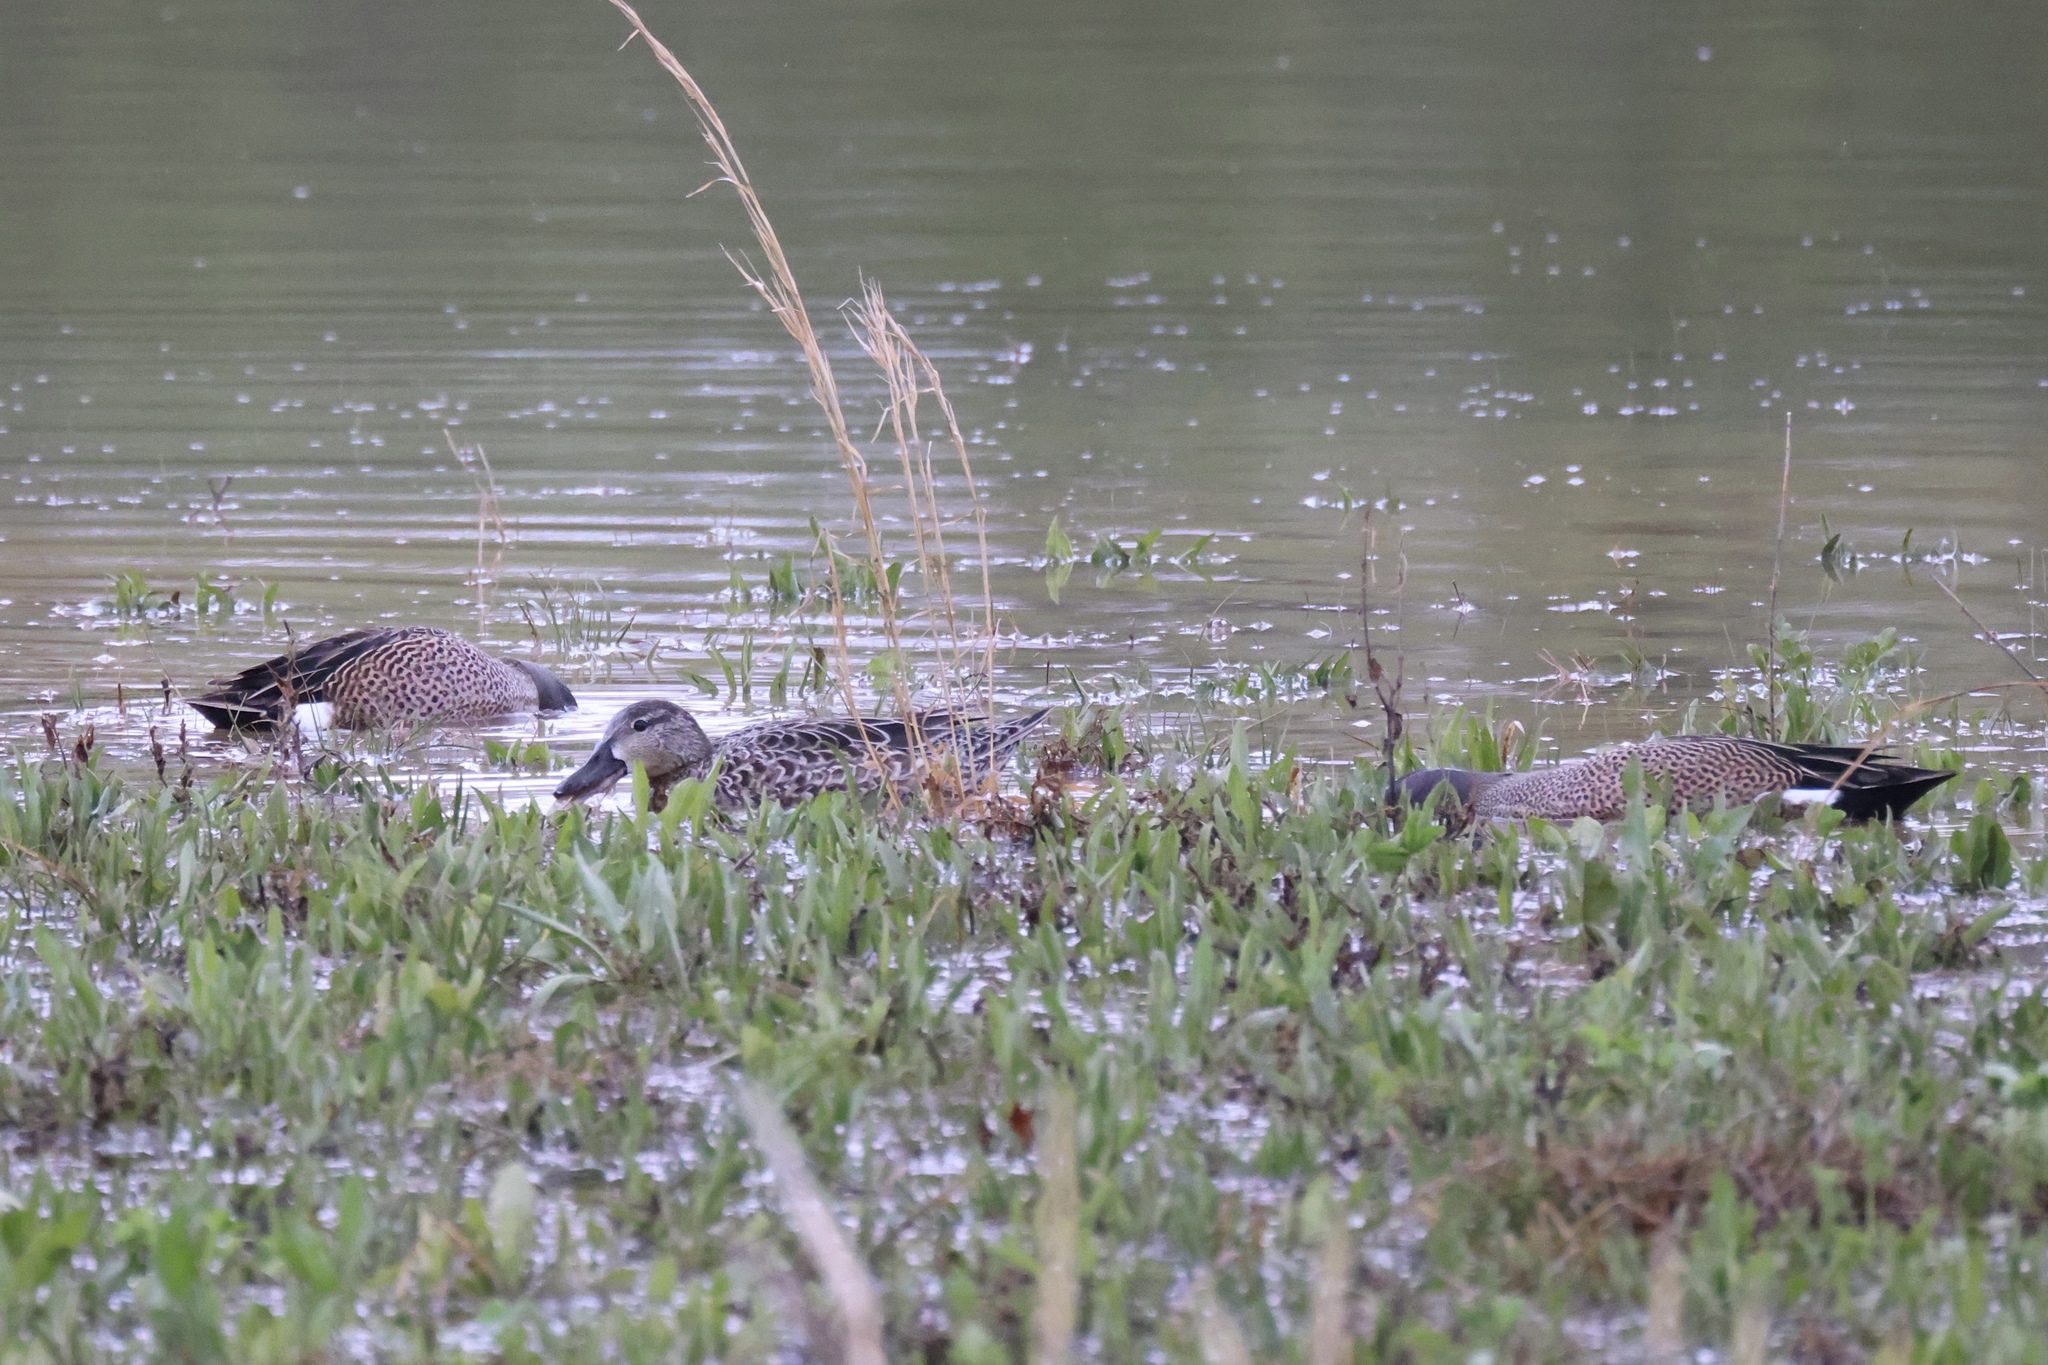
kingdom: Animalia
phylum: Chordata
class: Aves
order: Anseriformes
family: Anatidae
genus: Spatula
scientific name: Spatula discors
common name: Blue-winged teal
